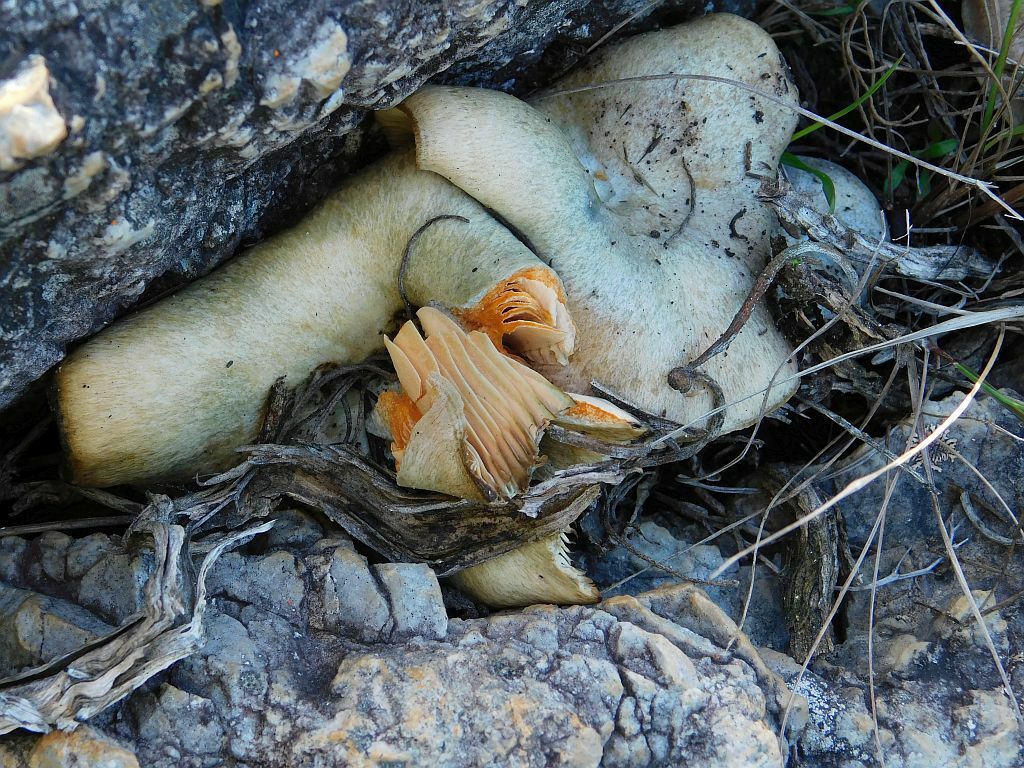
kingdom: Fungi
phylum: Basidiomycota
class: Agaricomycetes
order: Russulales
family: Russulaceae
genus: Lactarius
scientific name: Lactarius deliciosus
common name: Saffron milk-cap
